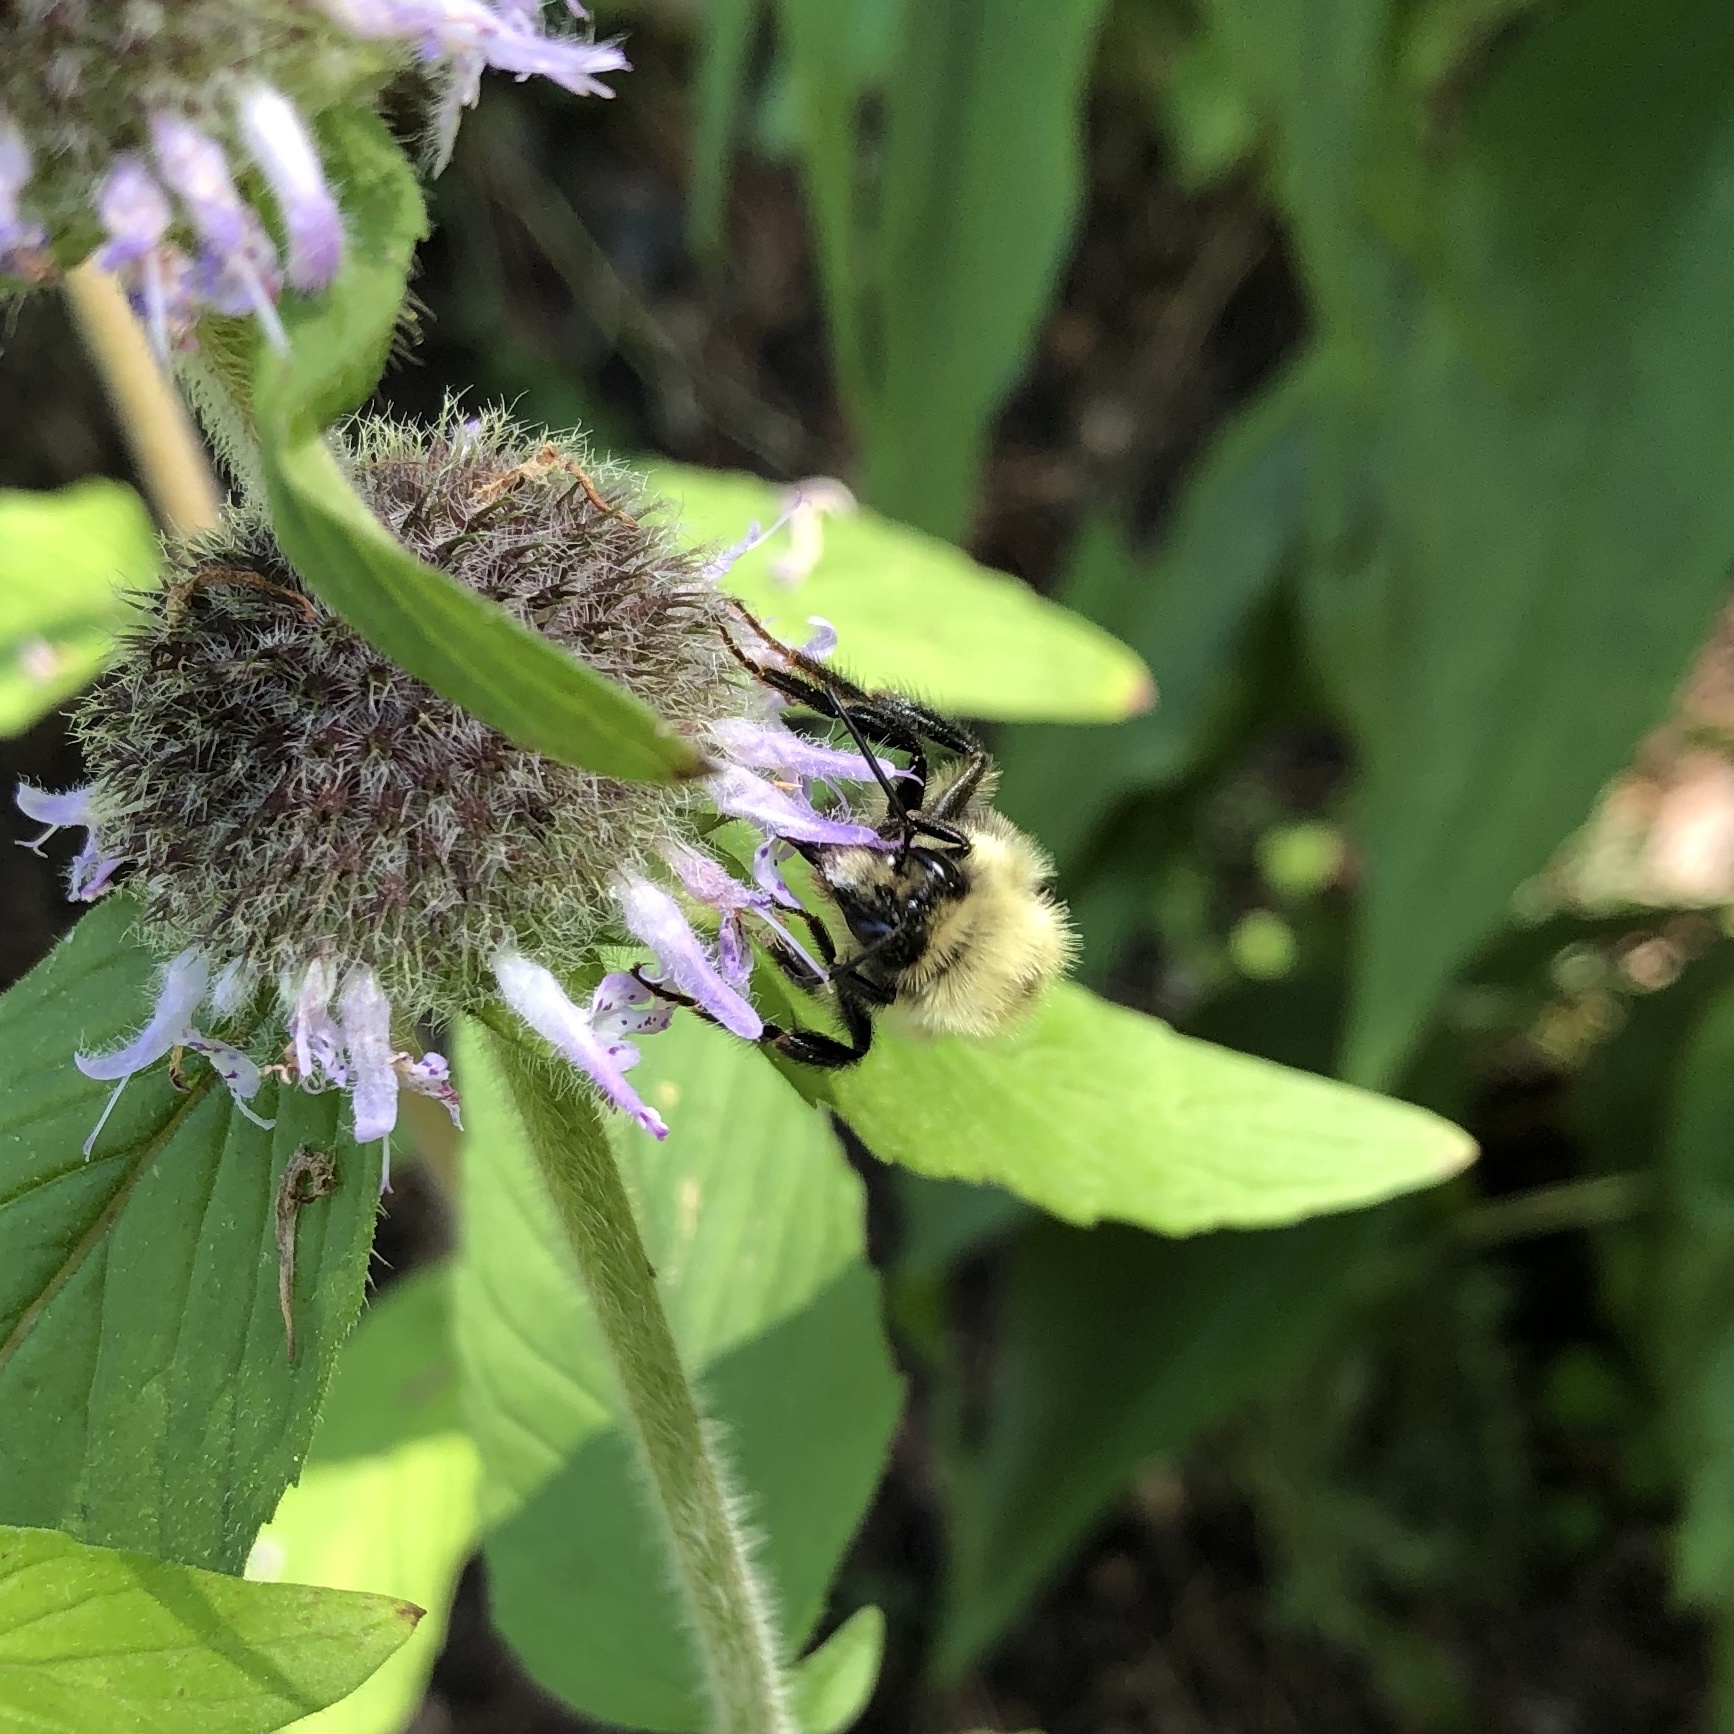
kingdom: Animalia
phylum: Arthropoda
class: Insecta
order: Hymenoptera
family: Apidae
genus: Bombus
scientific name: Bombus bimaculatus
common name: Two-spotted bumble bee
